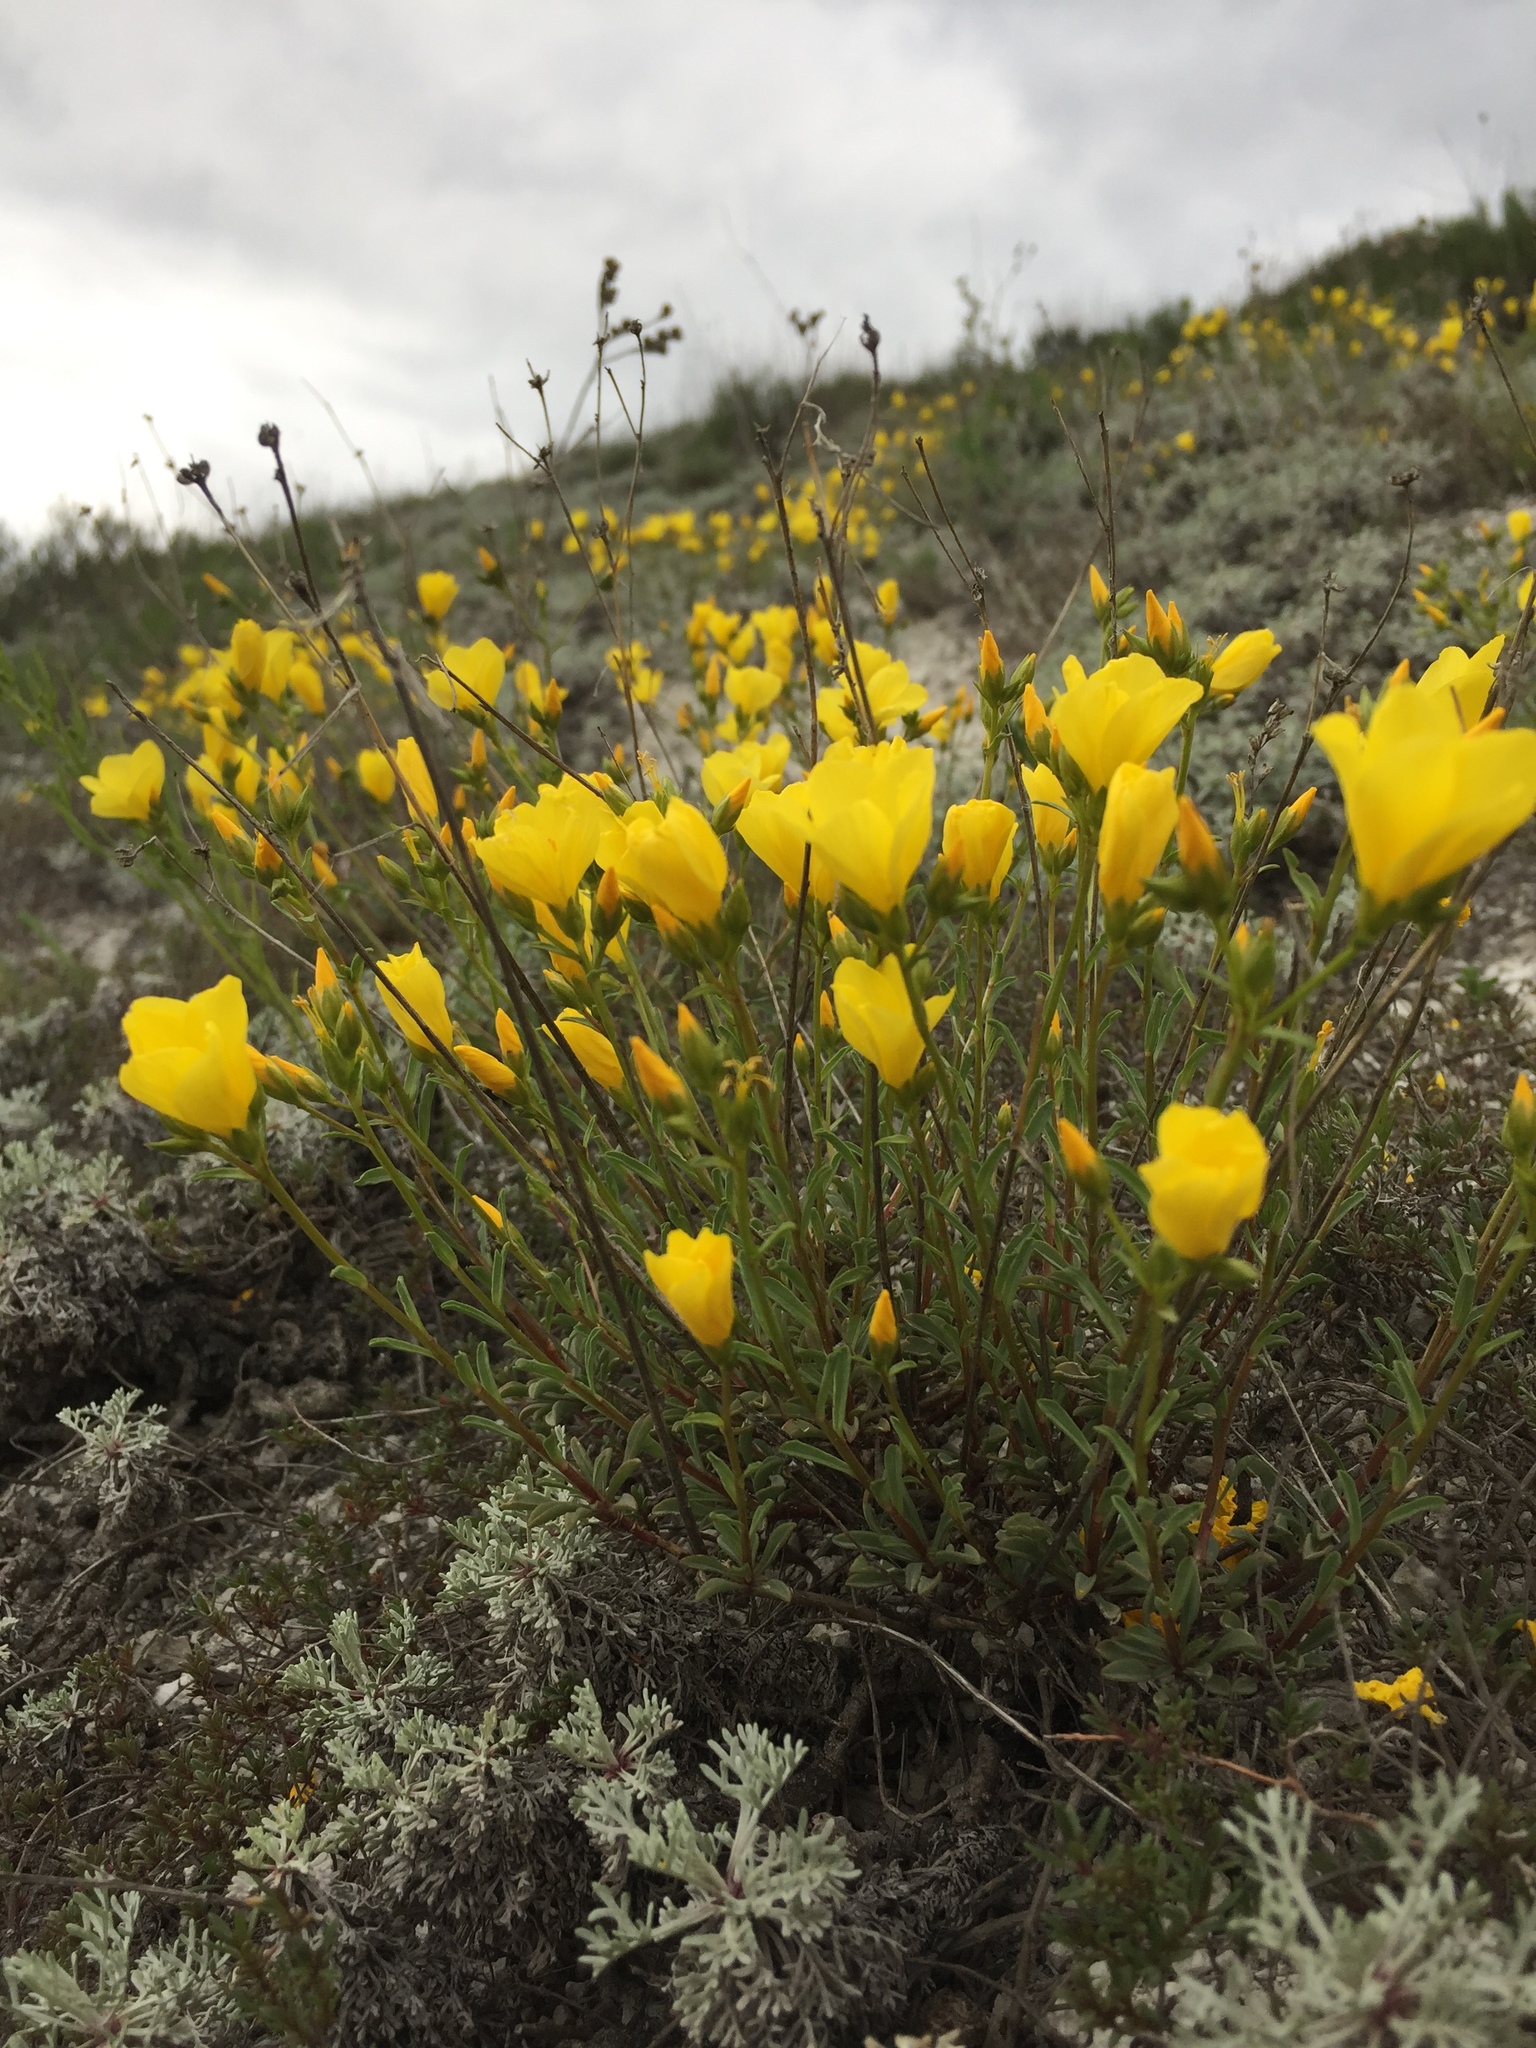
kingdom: Plantae
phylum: Tracheophyta
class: Magnoliopsida
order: Malpighiales
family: Linaceae
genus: Linum
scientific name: Linum ucranicum
